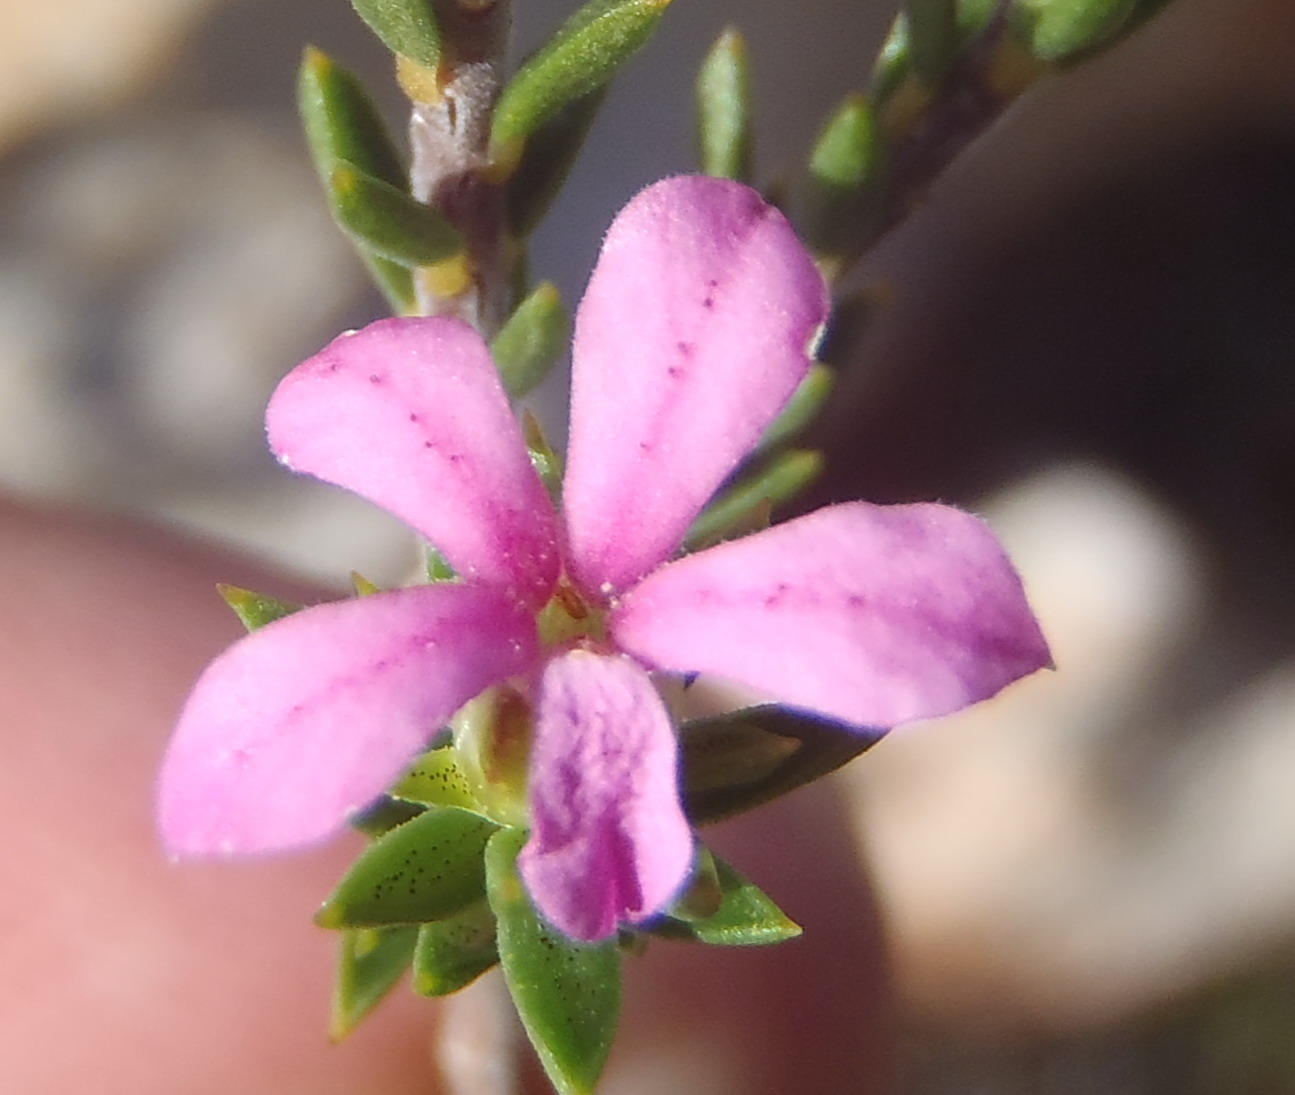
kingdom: Plantae
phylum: Tracheophyta
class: Magnoliopsida
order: Sapindales
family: Rutaceae
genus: Acmadenia
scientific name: Acmadenia maculata
